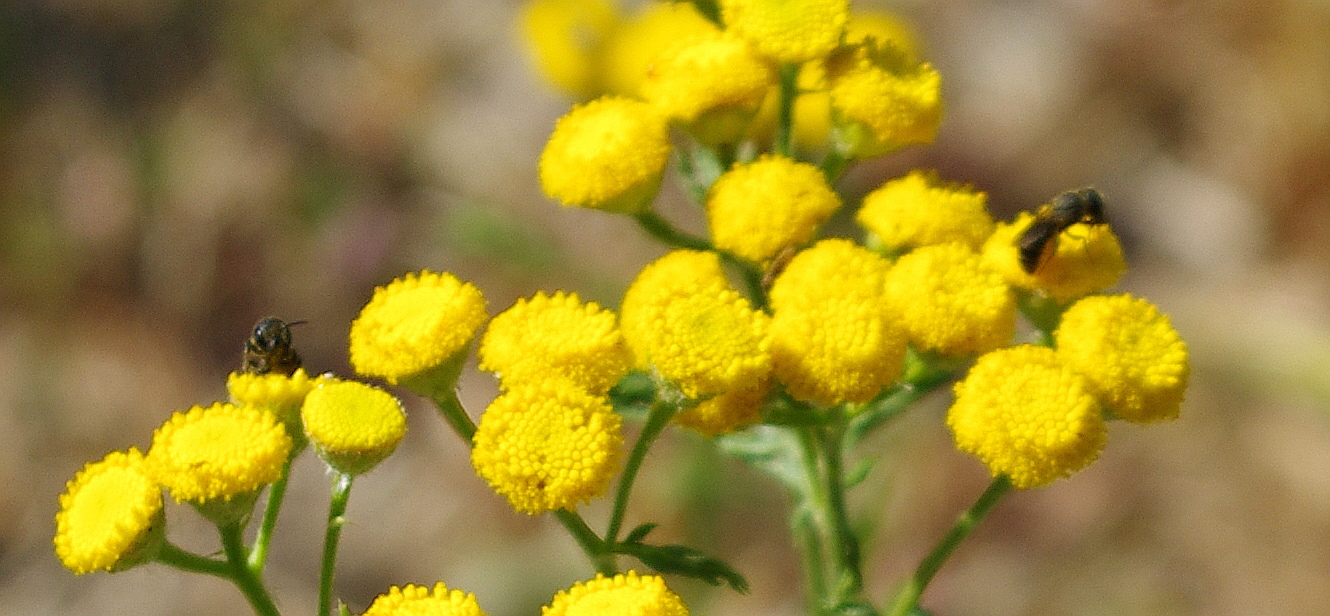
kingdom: Animalia
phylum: Arthropoda
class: Insecta
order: Hymenoptera
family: Megachilidae
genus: Heriades
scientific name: Heriades truncorum
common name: Ridge-saddled carpenter bee
